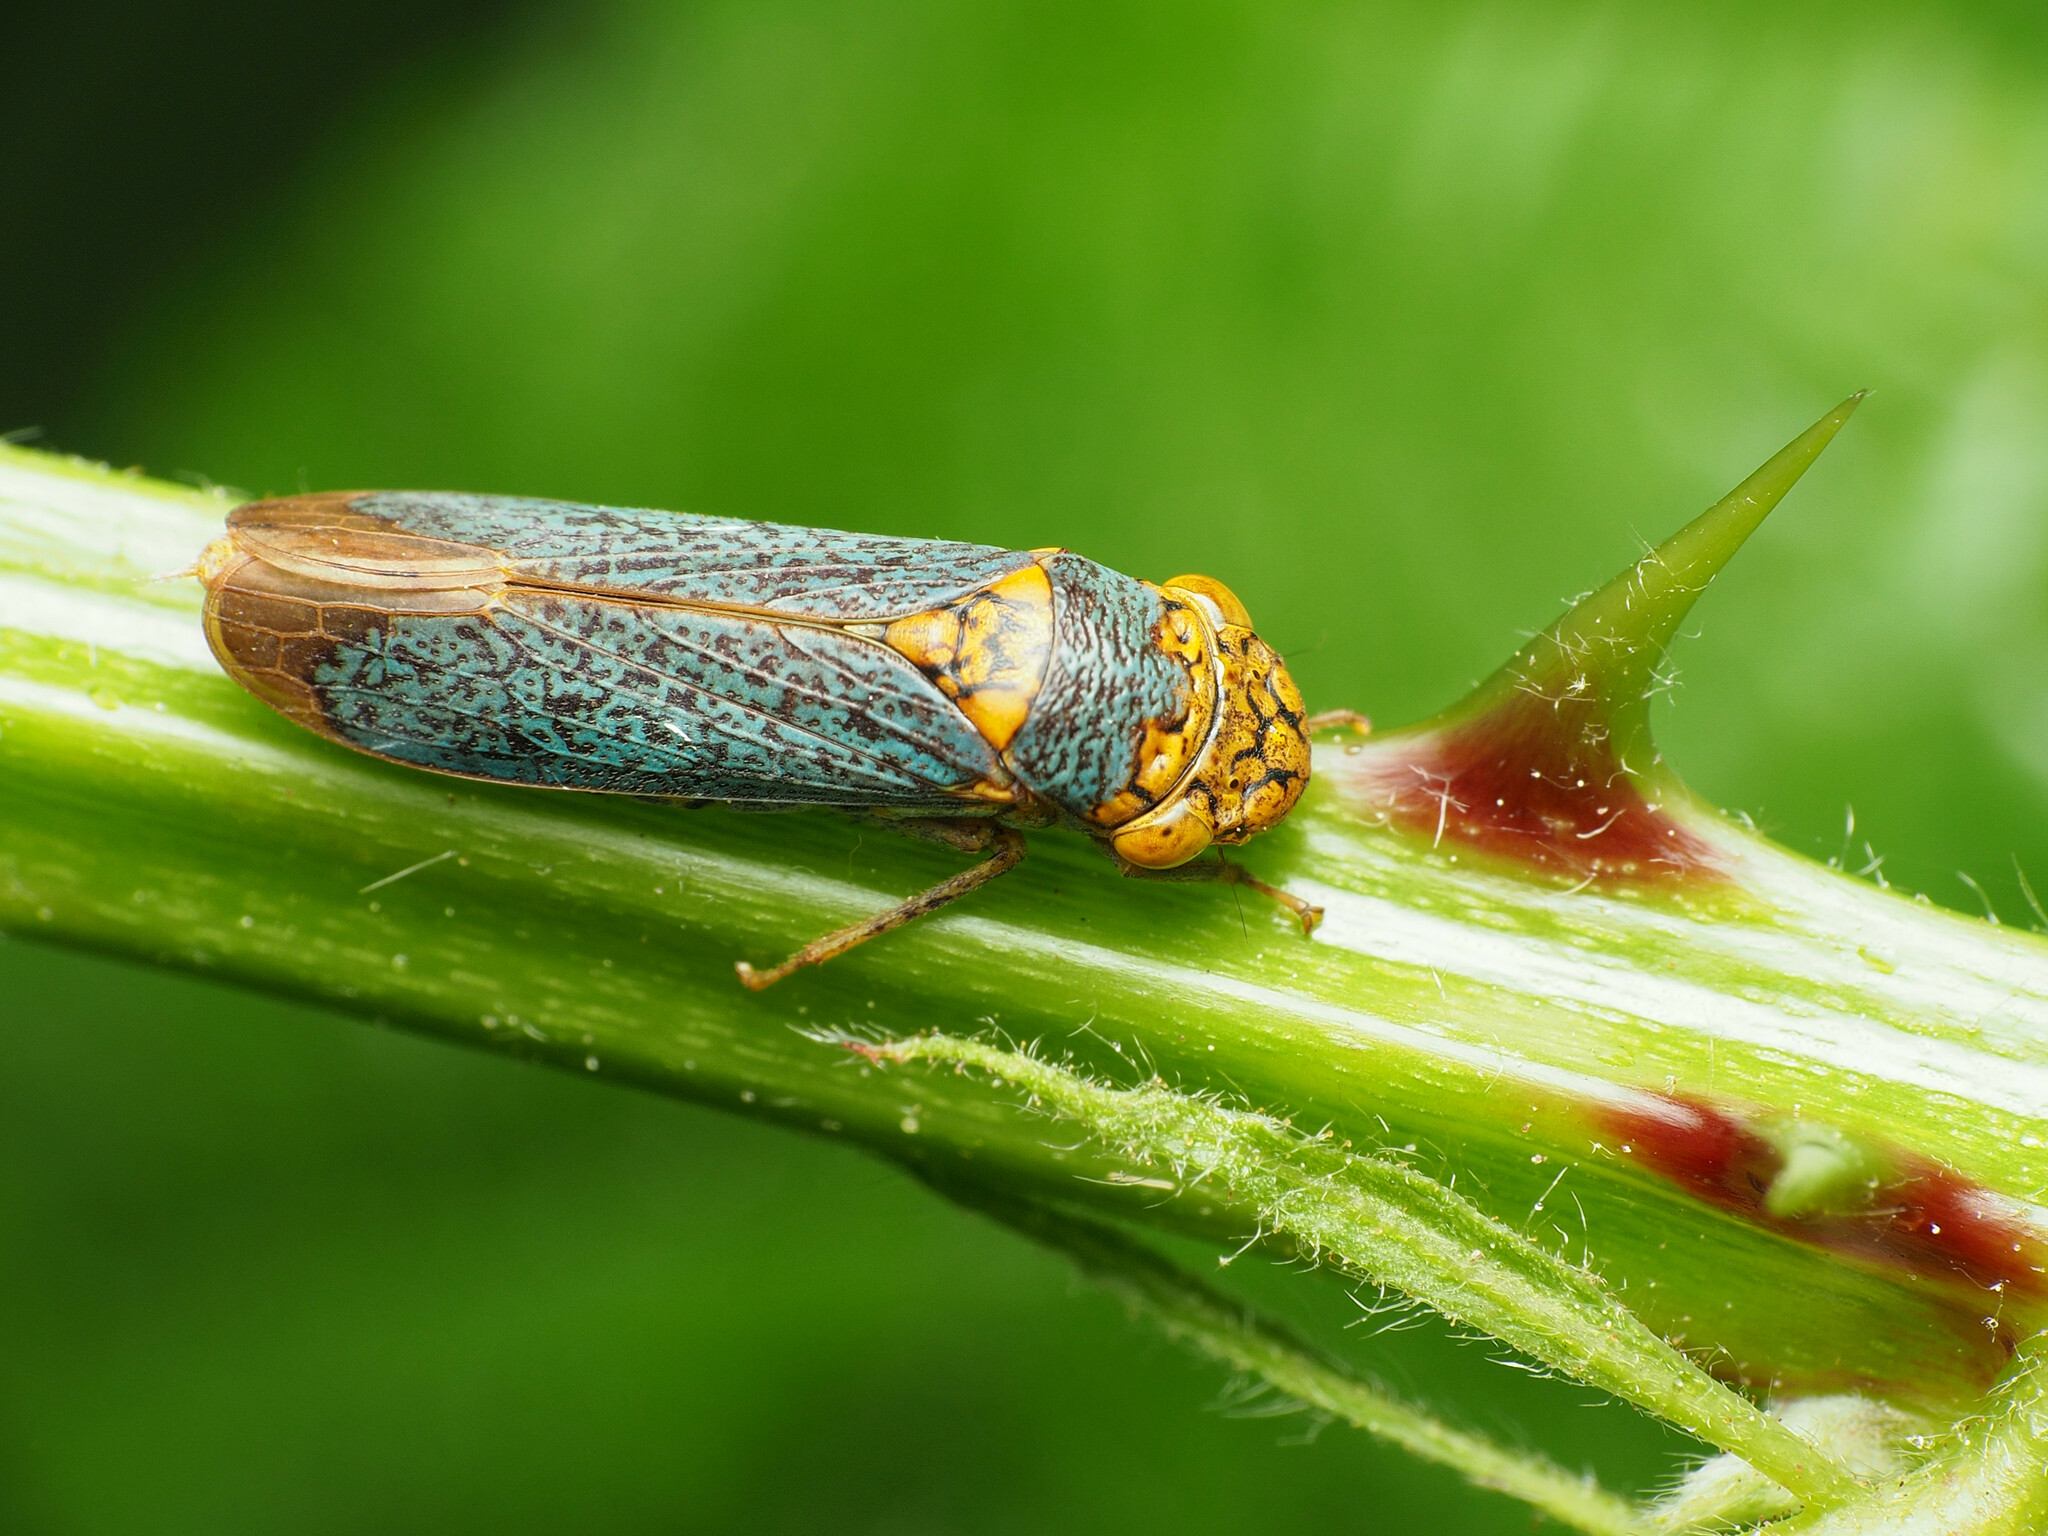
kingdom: Animalia
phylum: Arthropoda
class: Insecta
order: Hemiptera
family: Cicadellidae
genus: Oncometopia
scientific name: Oncometopia orbona
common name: Broad-headed sharpshooter
